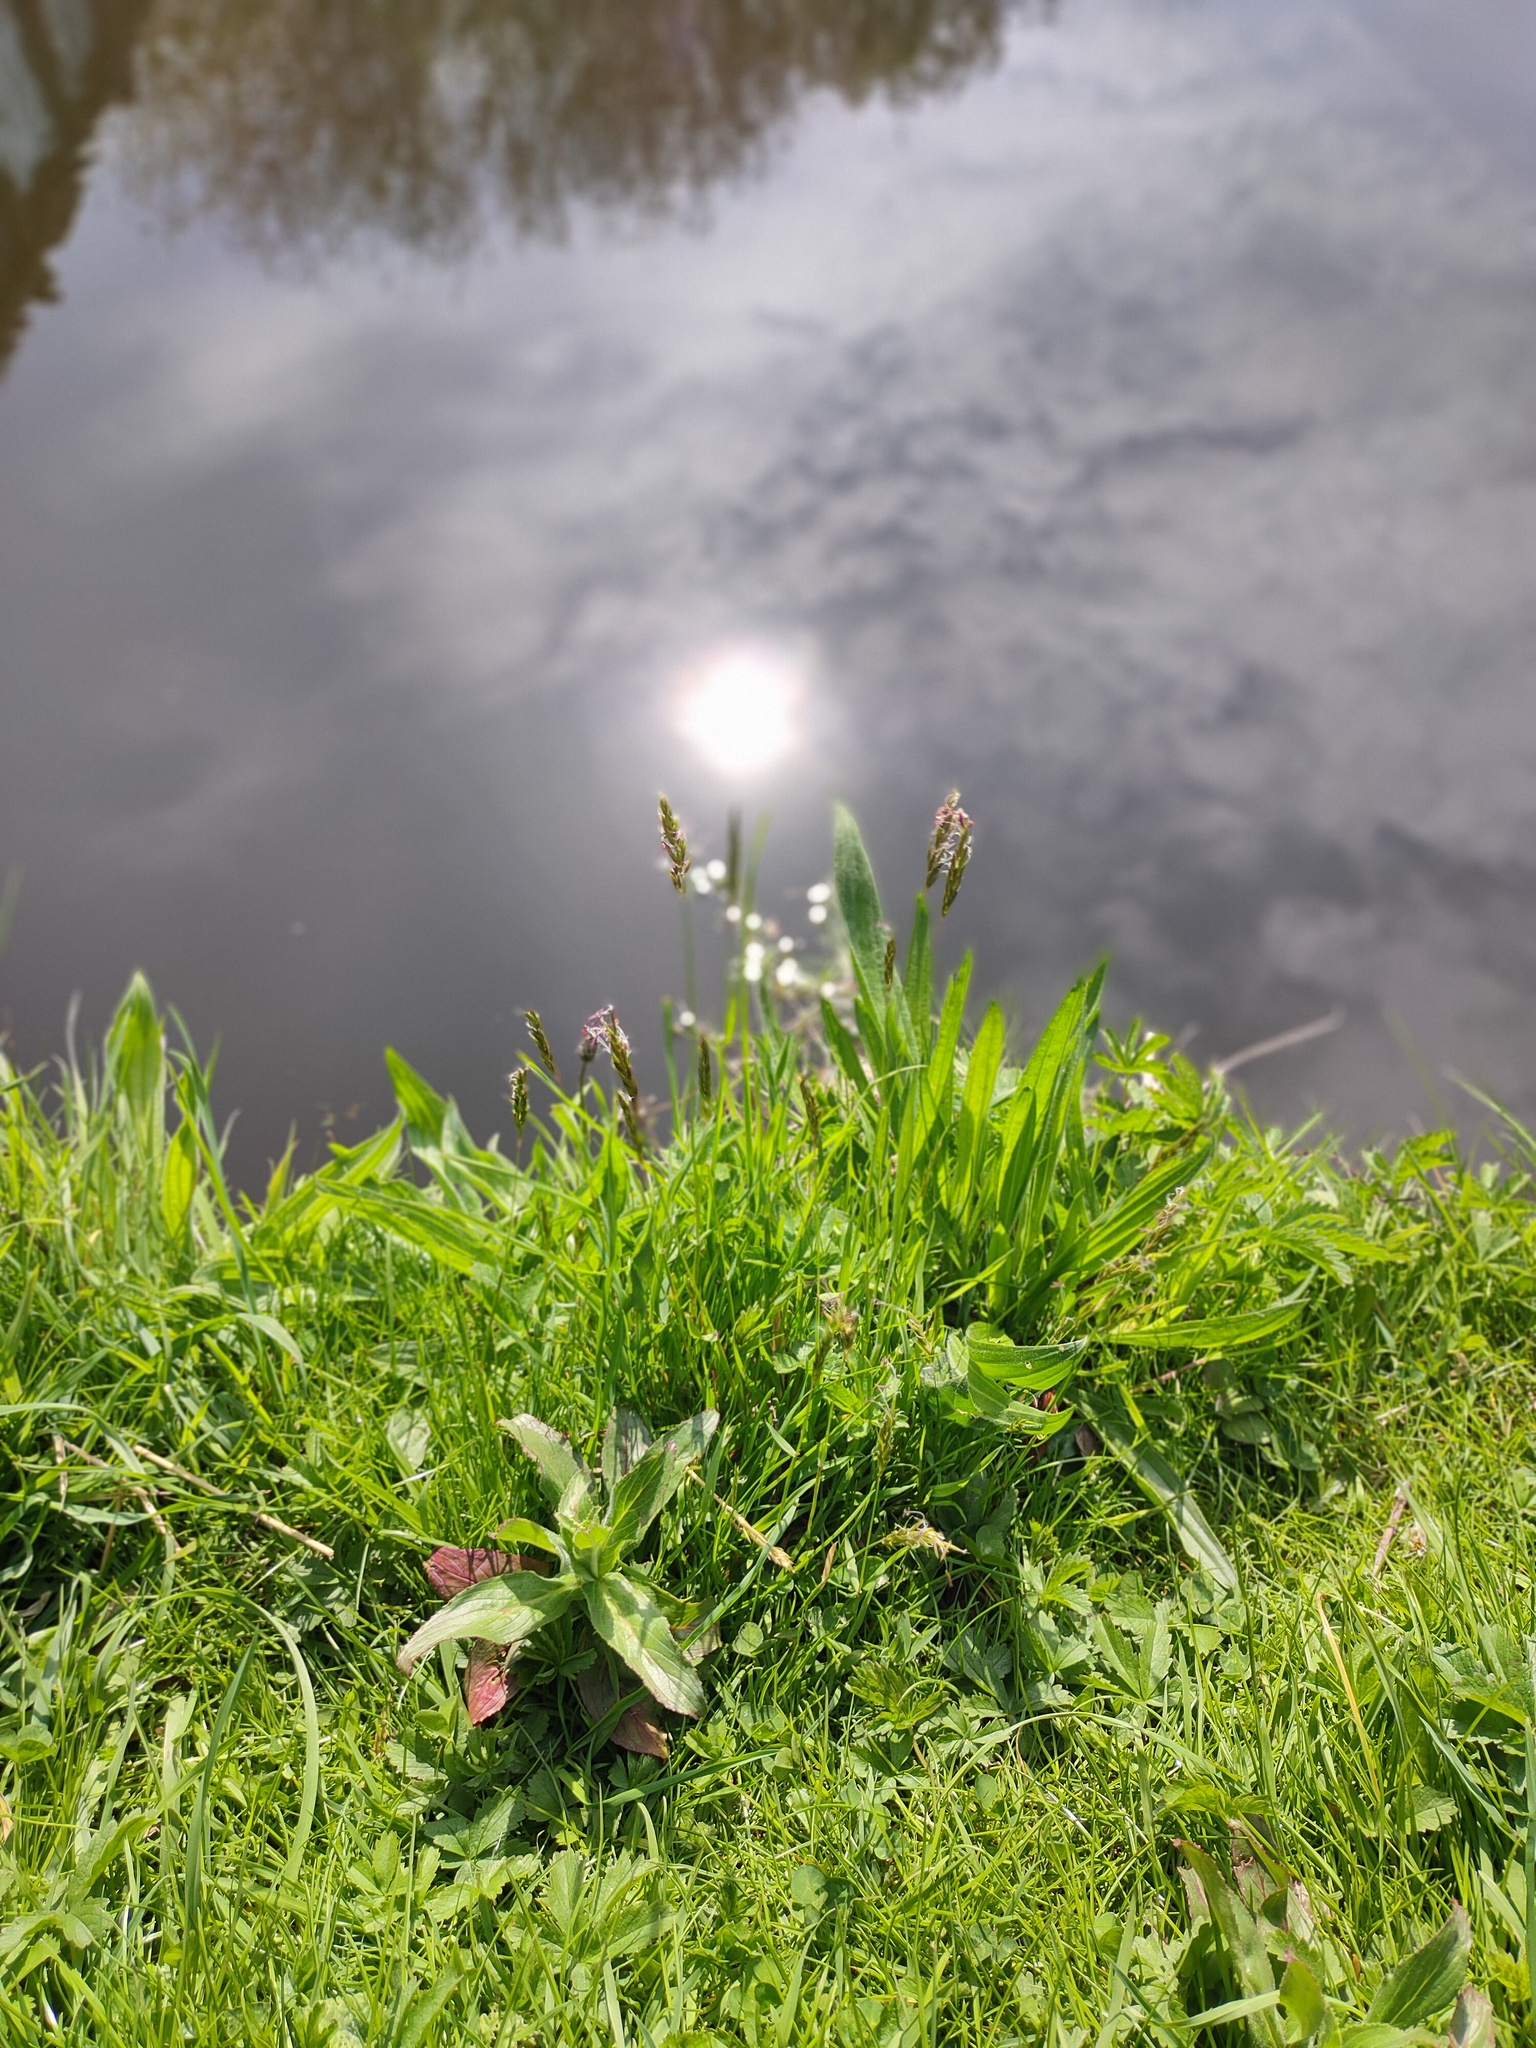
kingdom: Plantae
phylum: Tracheophyta
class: Liliopsida
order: Poales
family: Poaceae
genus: Anthoxanthum
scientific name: Anthoxanthum odoratum
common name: Sweet vernalgrass
